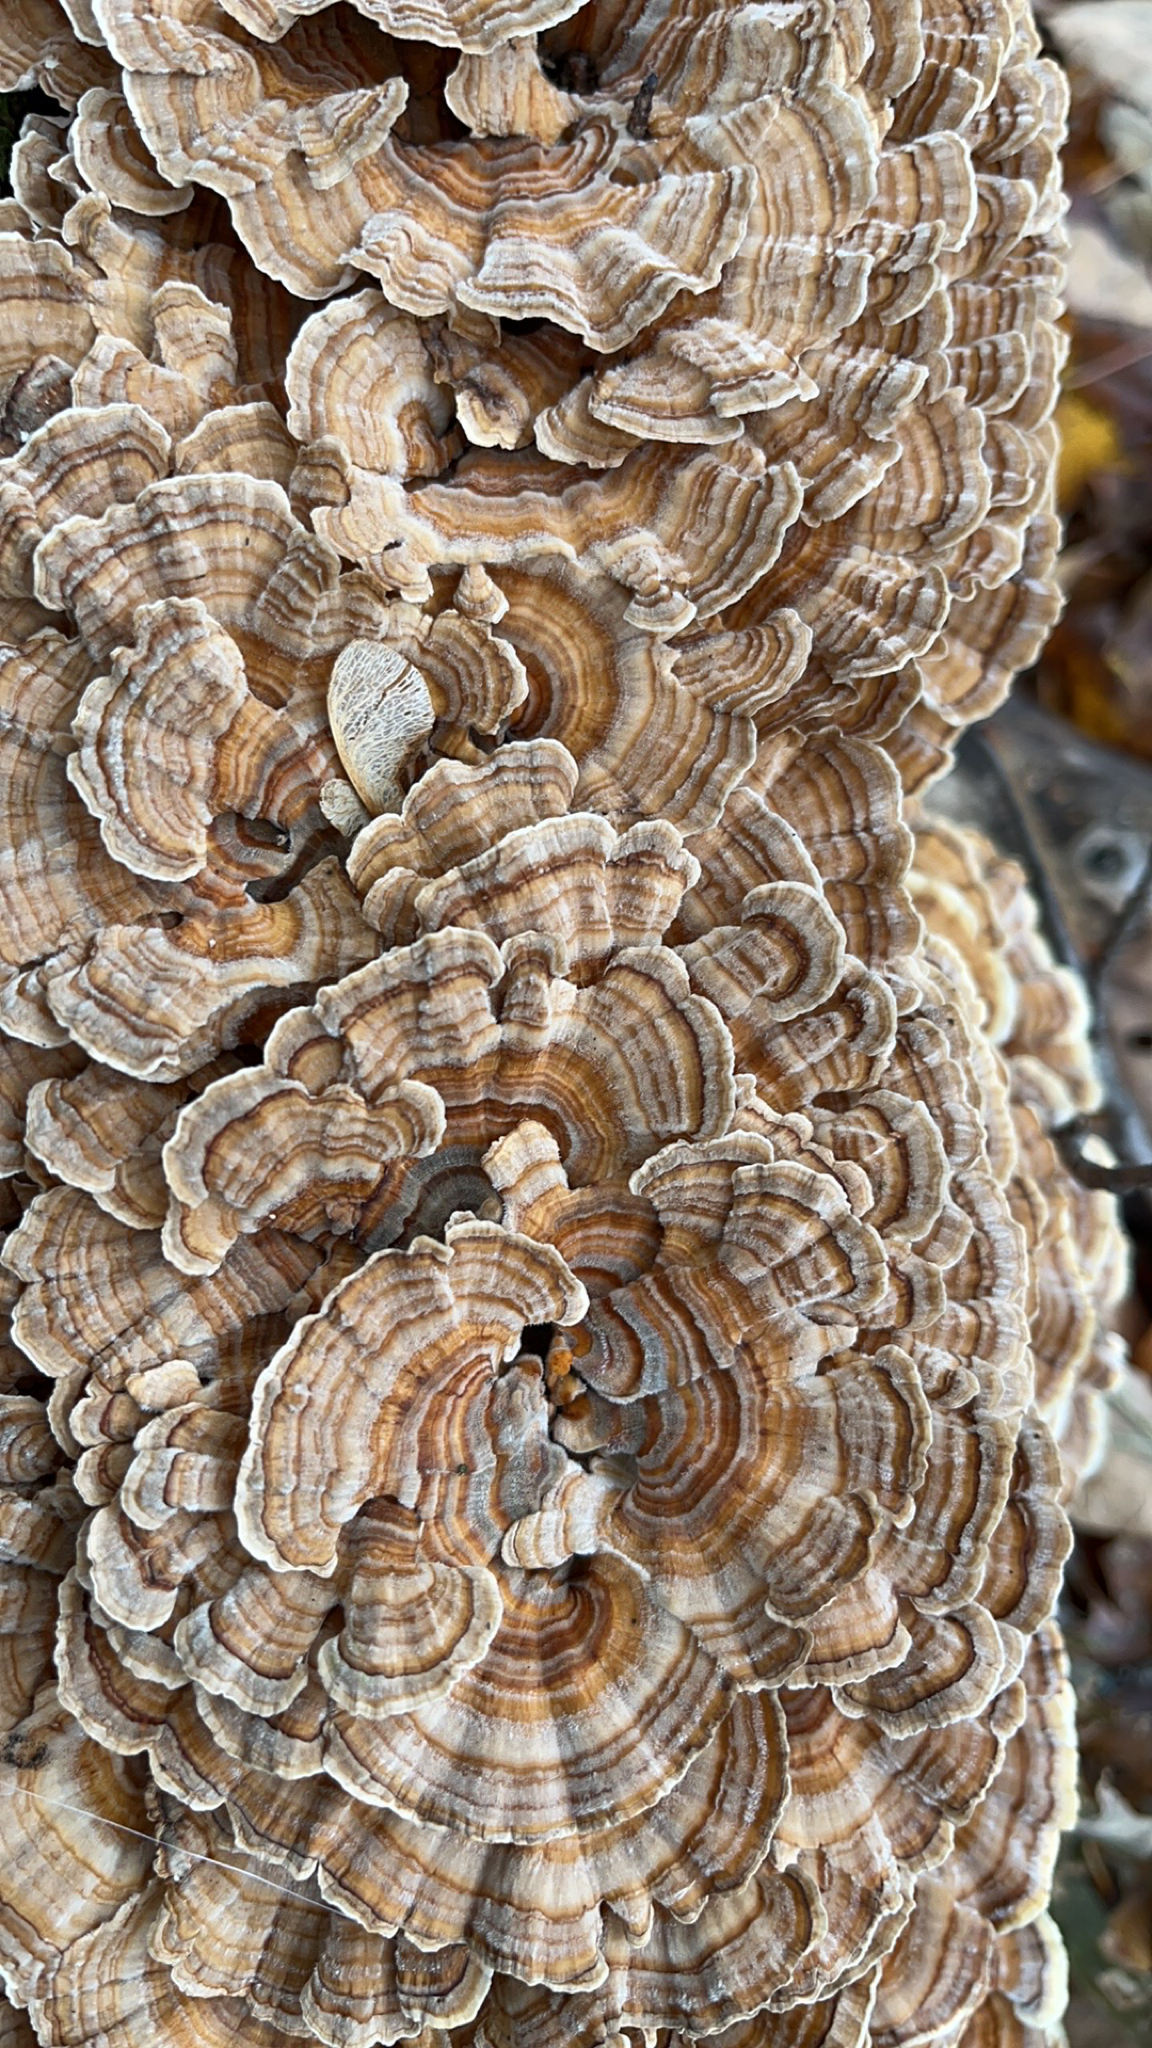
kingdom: Fungi
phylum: Basidiomycota
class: Agaricomycetes
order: Polyporales
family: Polyporaceae
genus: Trametes
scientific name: Trametes versicolor
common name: Turkeytail
